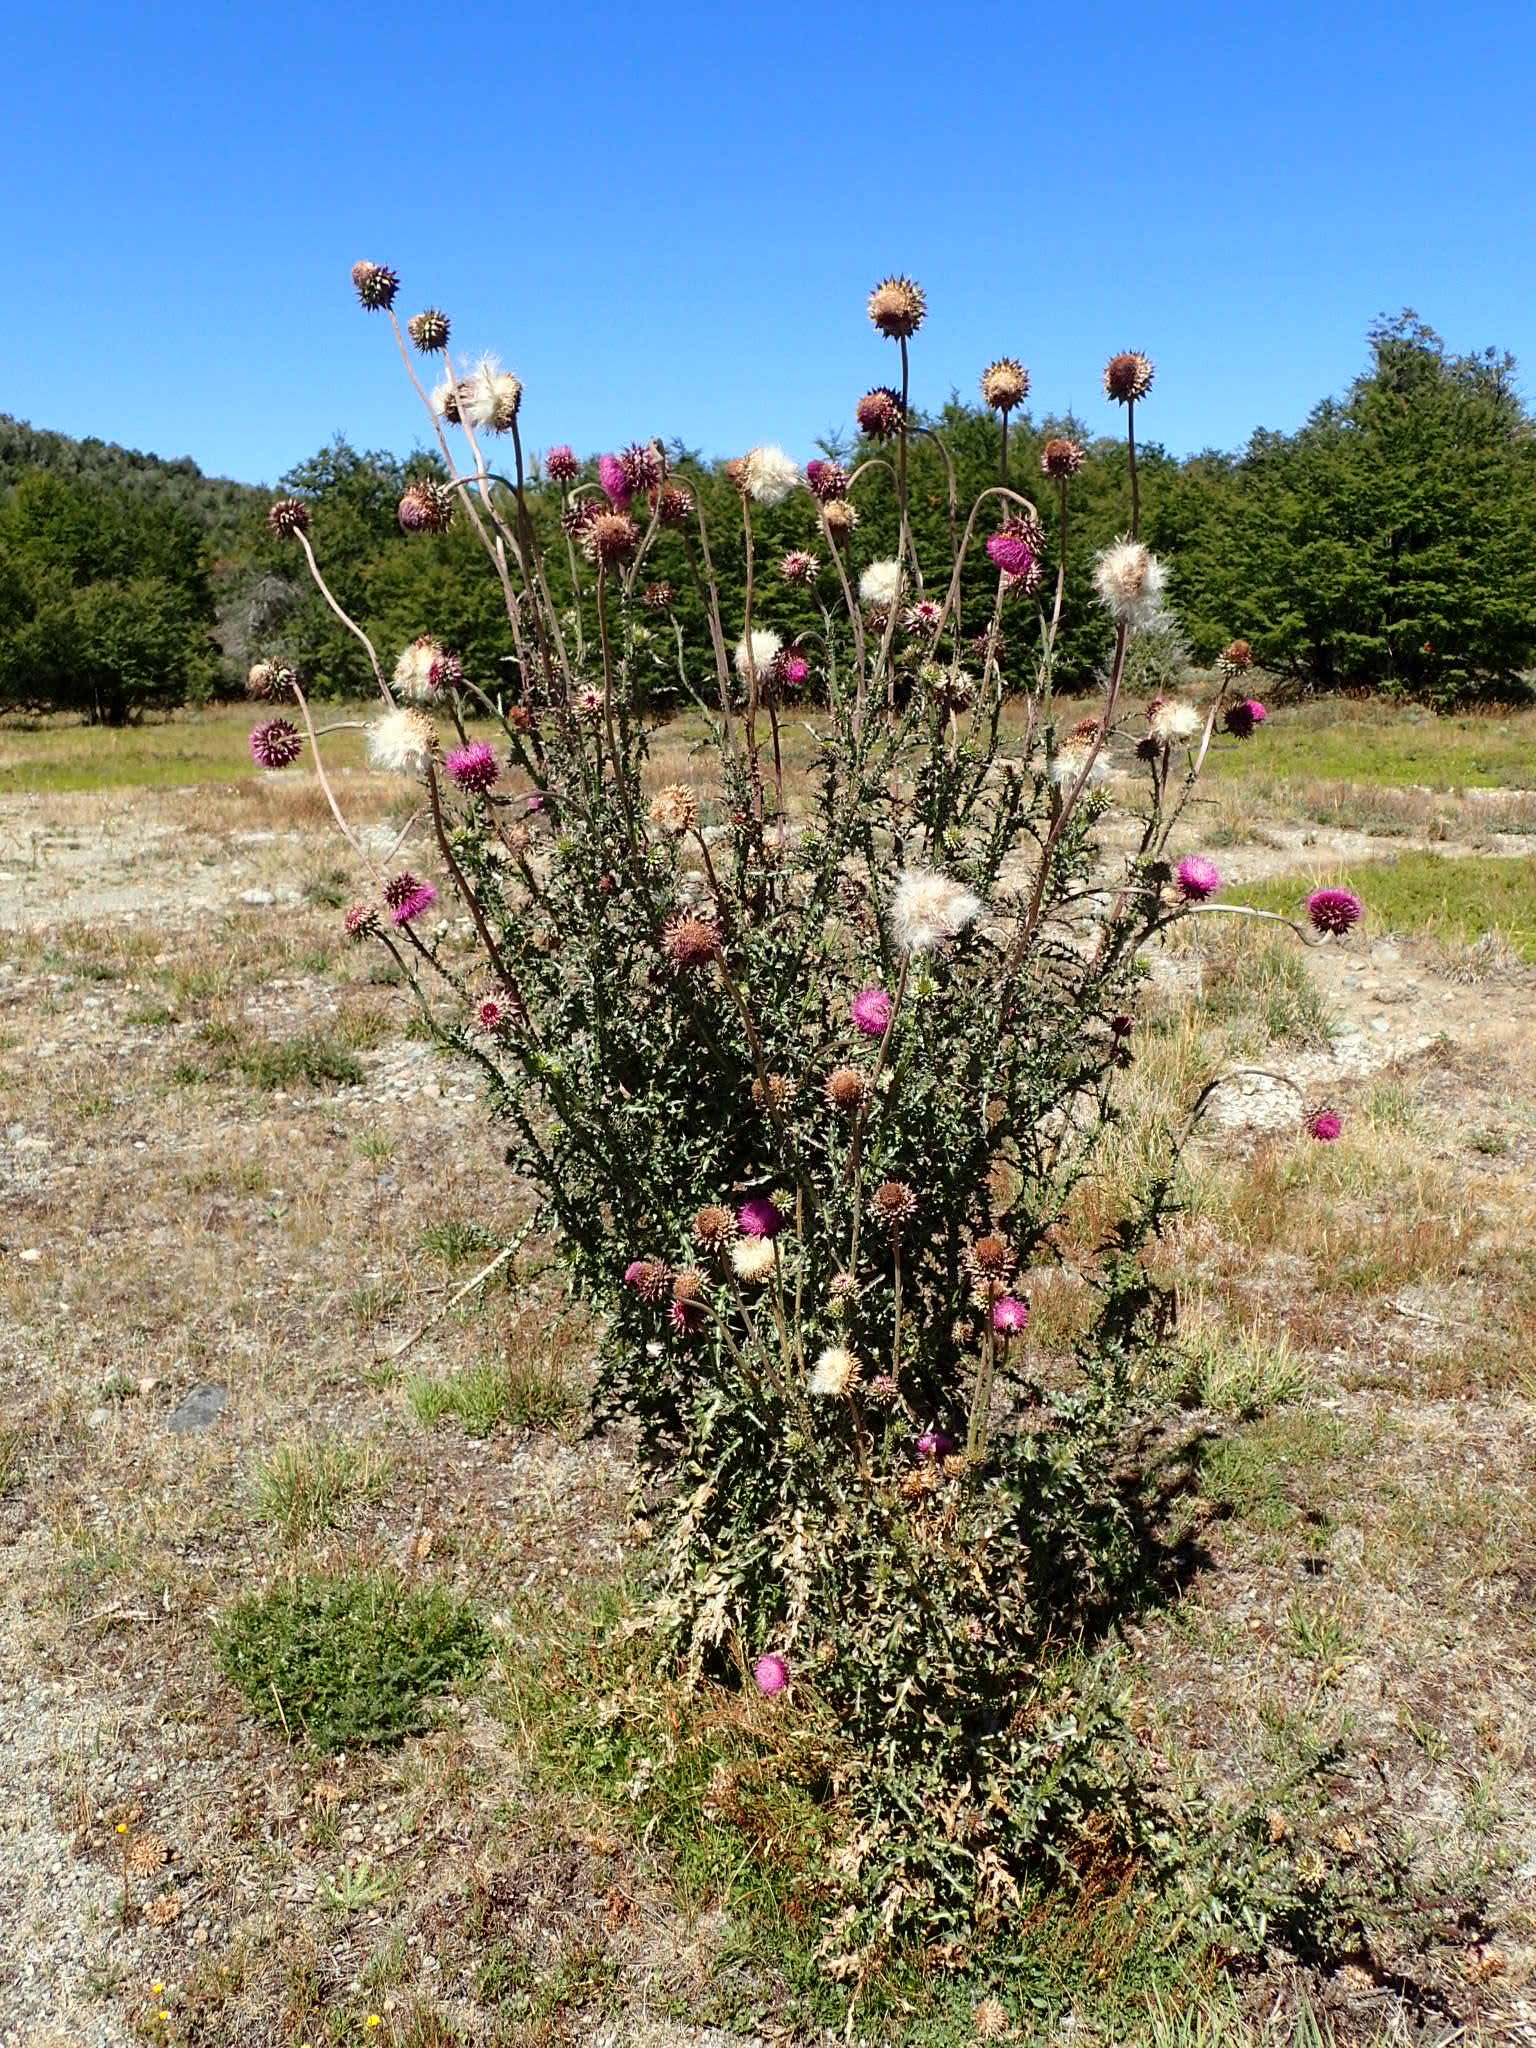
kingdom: Plantae
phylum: Tracheophyta
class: Magnoliopsida
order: Asterales
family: Asteraceae
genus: Carduus
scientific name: Carduus nutans
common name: Musk thistle
